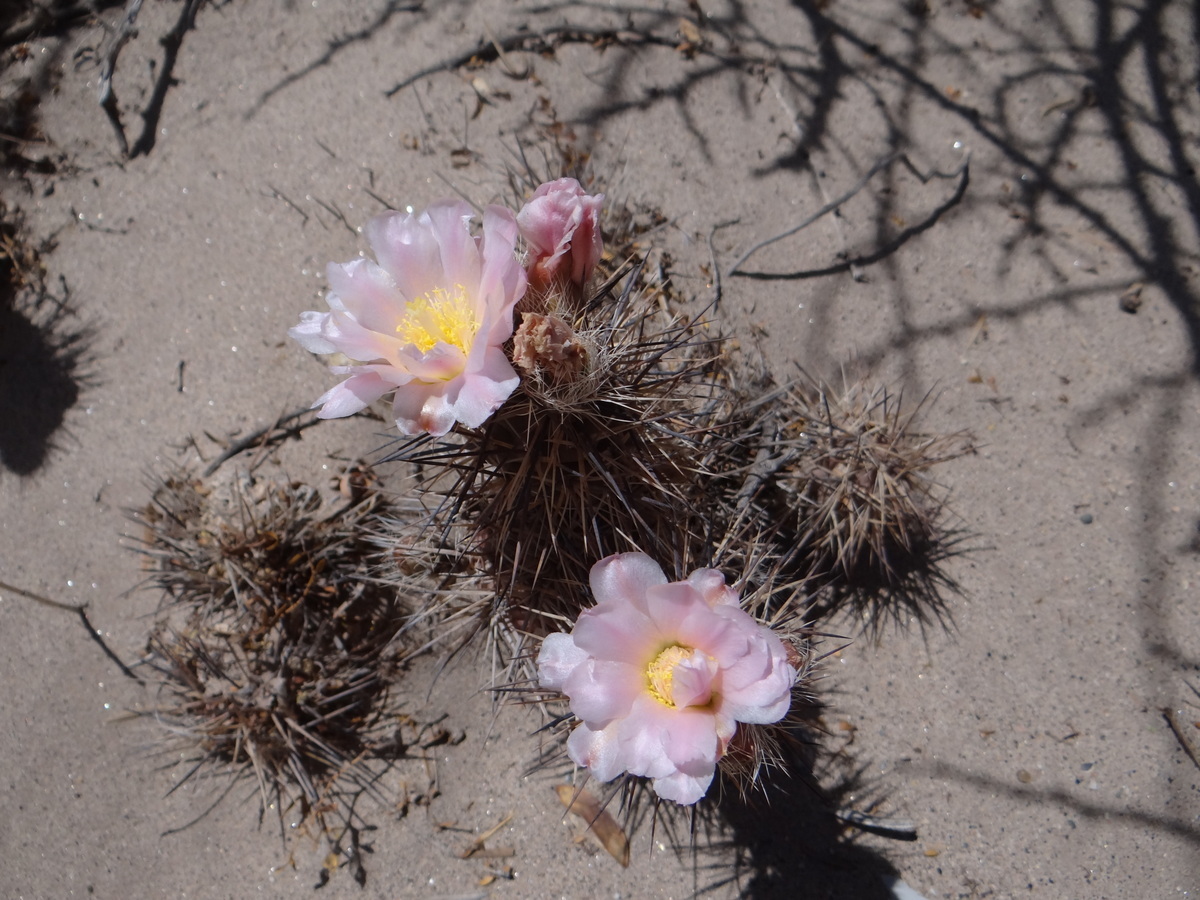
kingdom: Plantae
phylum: Tracheophyta
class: Magnoliopsida
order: Caryophyllales
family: Cactaceae
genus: Tephrocactus
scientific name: Tephrocactus alexanderi
